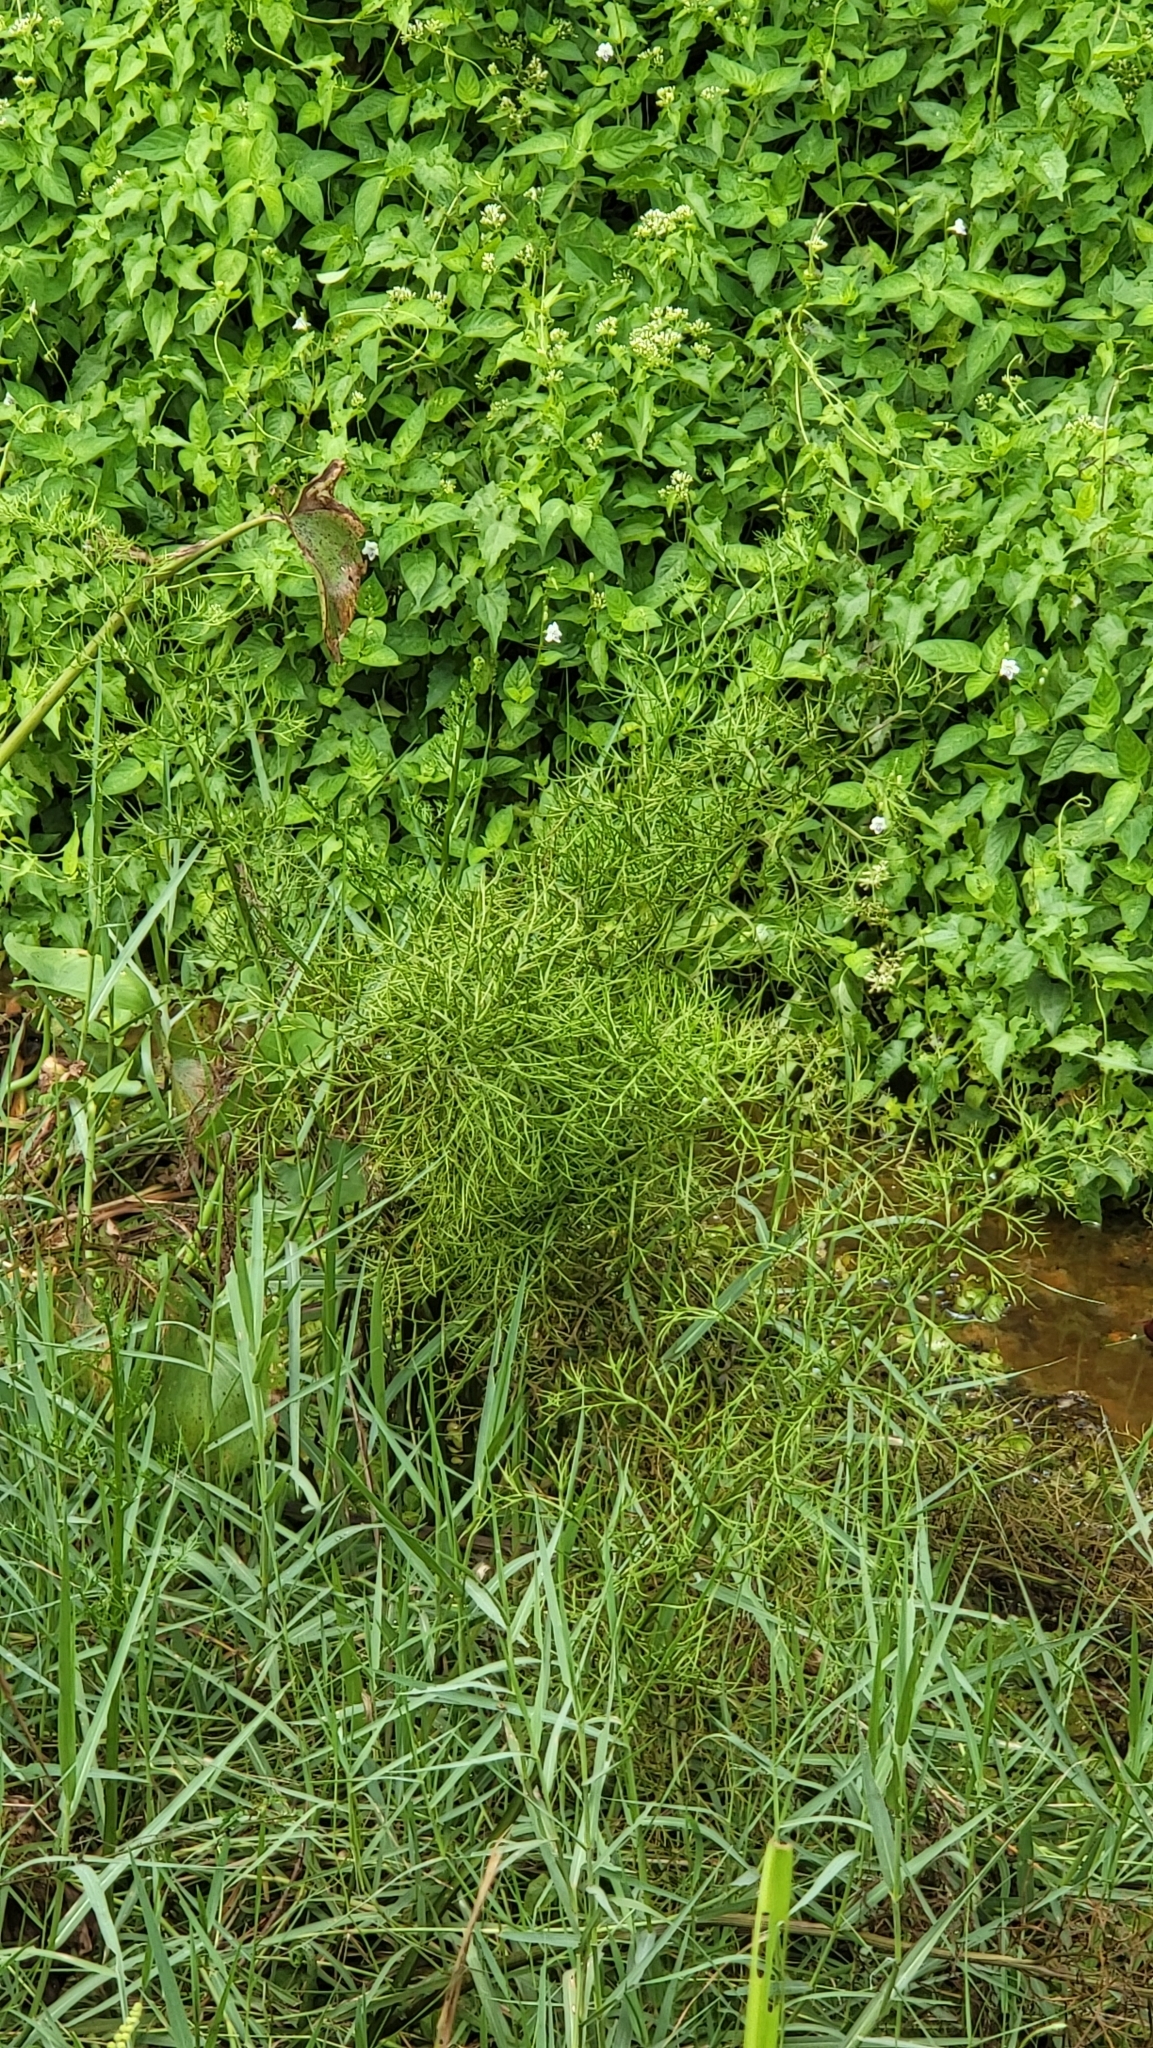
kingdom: Plantae
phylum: Tracheophyta
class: Polypodiopsida
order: Polypodiales
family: Pteridaceae
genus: Ceratopteris
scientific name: Ceratopteris thalictroides
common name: Water fern
